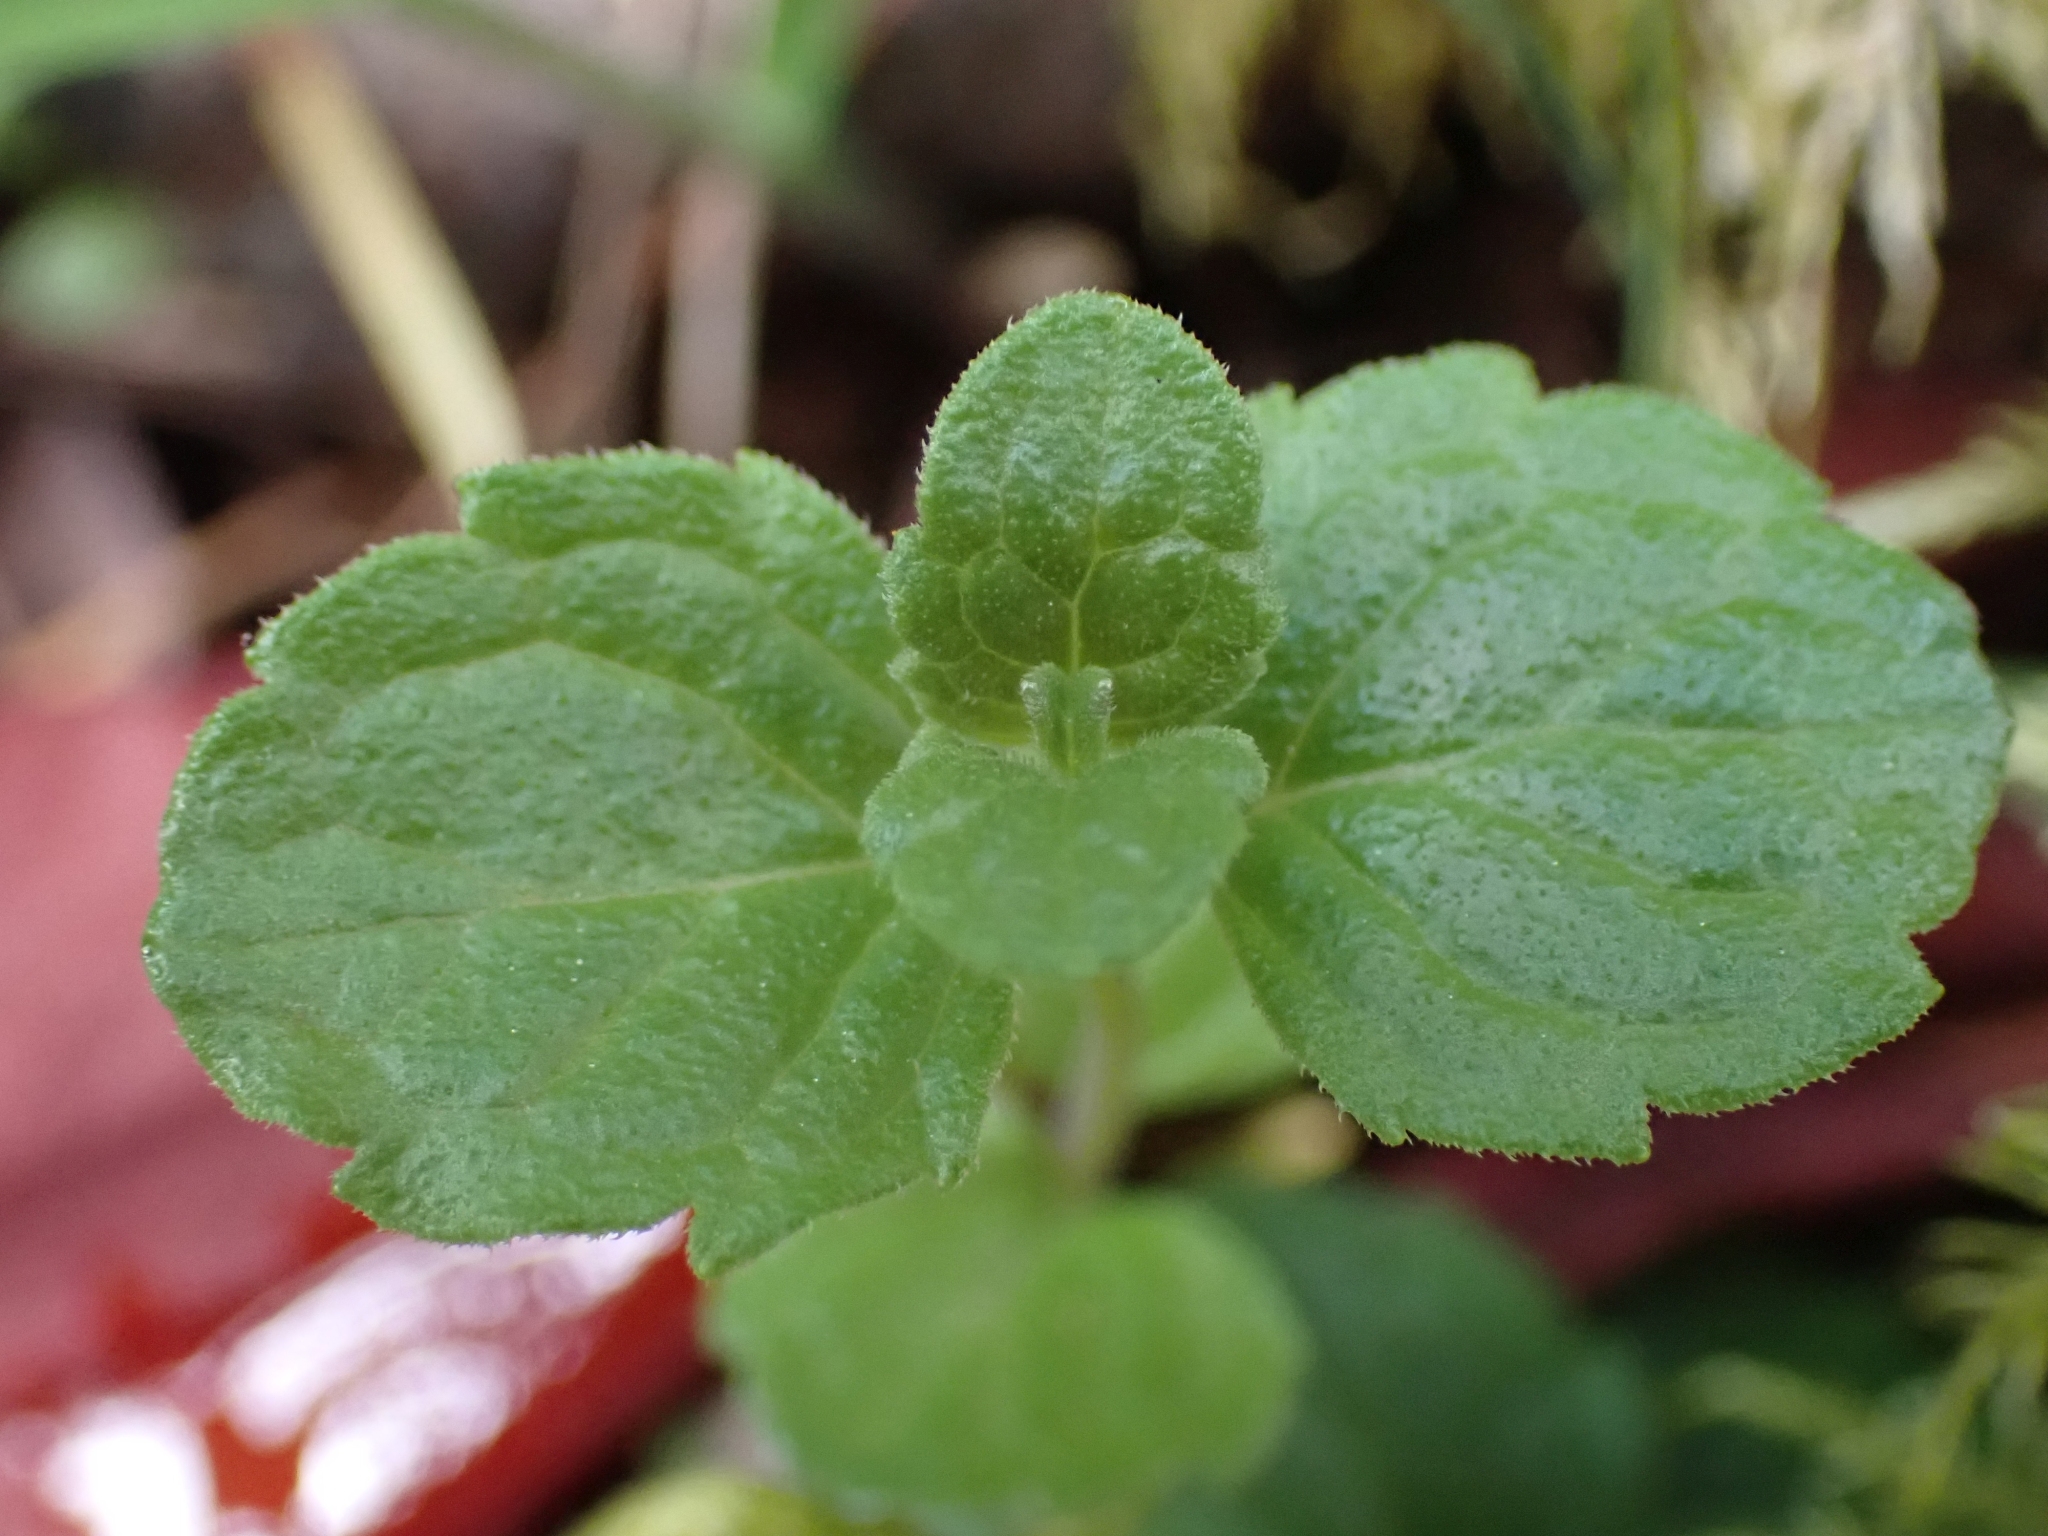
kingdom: Plantae
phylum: Tracheophyta
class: Magnoliopsida
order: Lamiales
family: Lamiaceae
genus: Micromeria
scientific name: Micromeria douglasii
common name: Yerba buena
